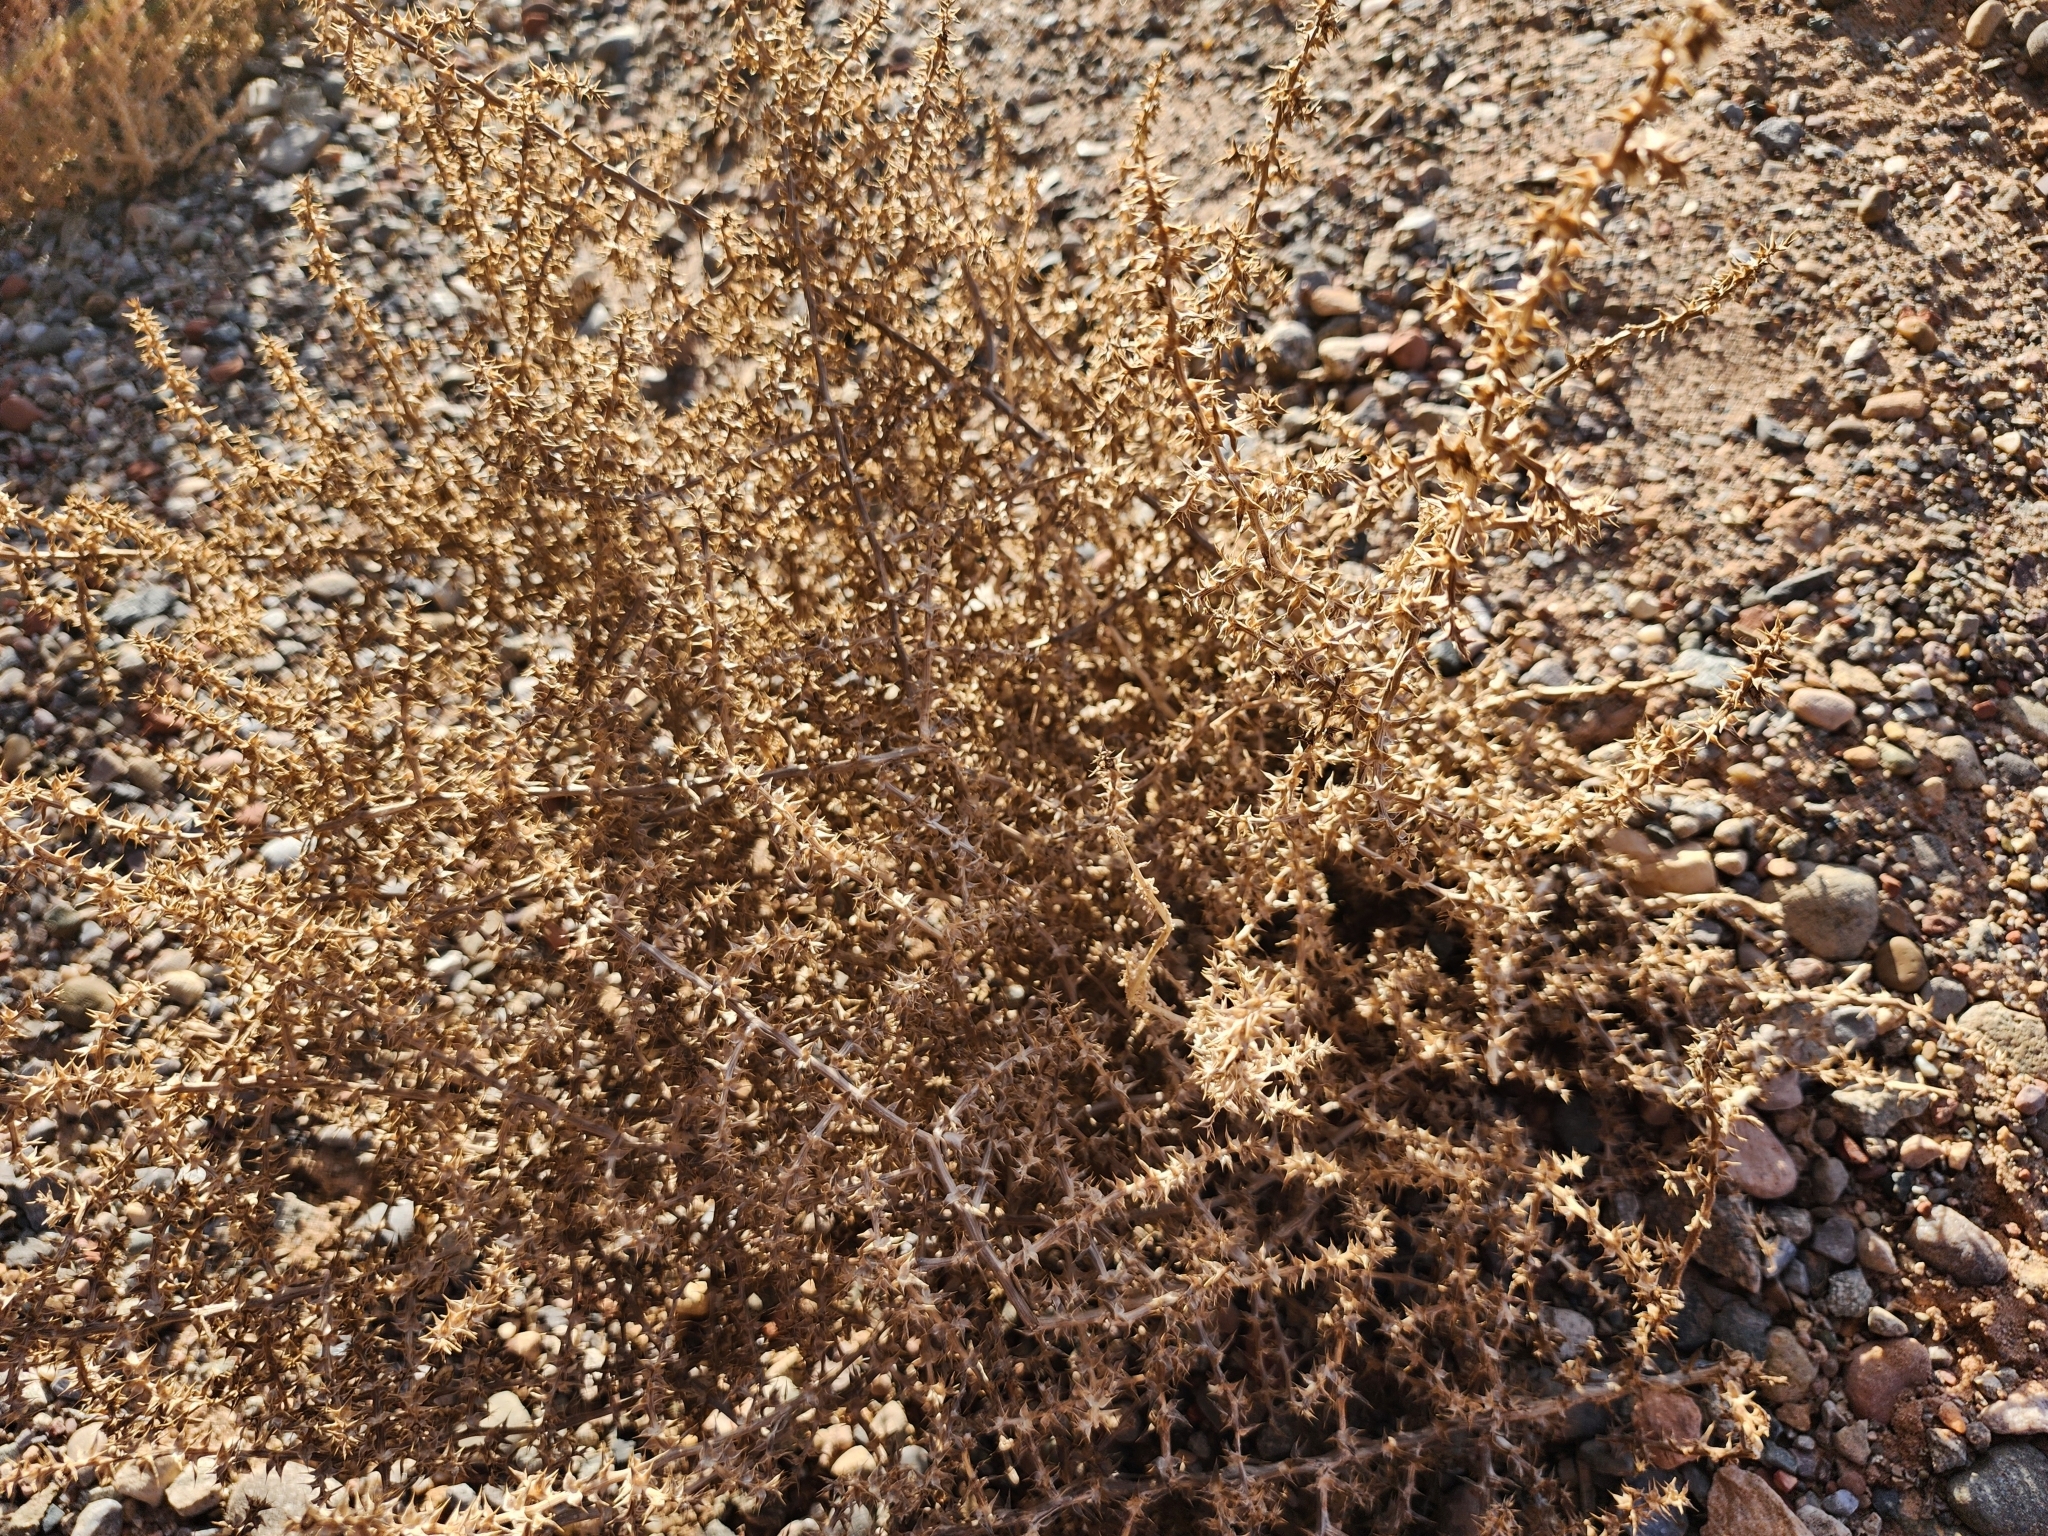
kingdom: Plantae
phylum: Tracheophyta
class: Magnoliopsida
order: Caryophyllales
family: Amaranthaceae
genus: Salsola
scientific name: Salsola tragus
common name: Prickly russian thistle
